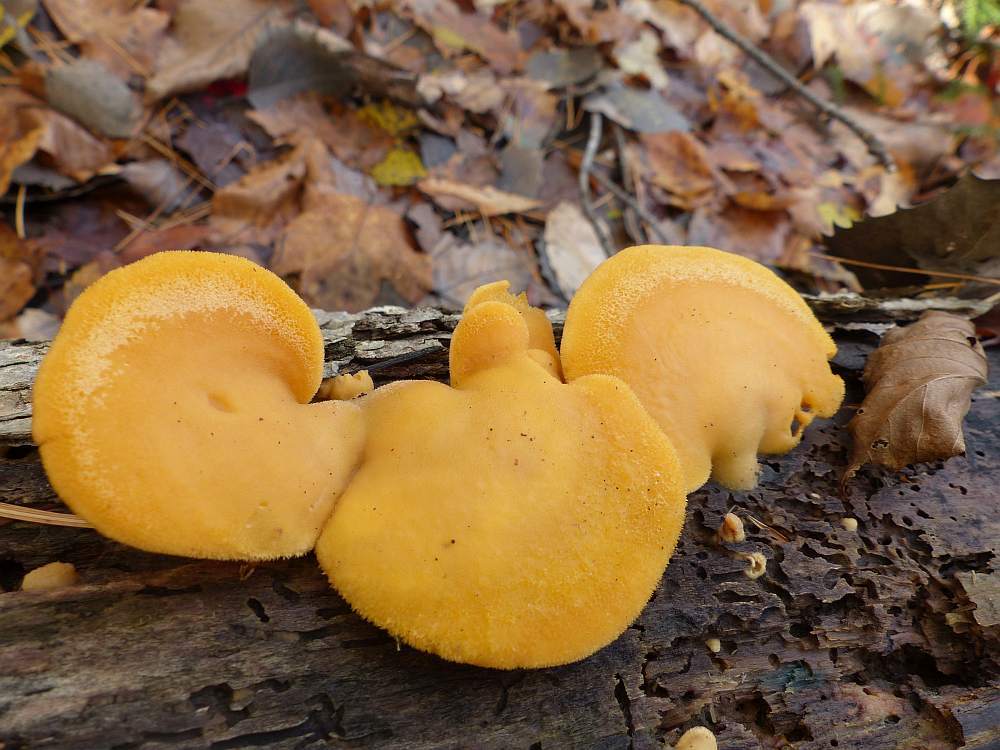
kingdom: Fungi
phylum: Basidiomycota
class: Agaricomycetes
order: Agaricales
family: Phyllotopsidaceae
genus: Phyllotopsis
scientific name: Phyllotopsis nidulans
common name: Orange mock oyster
